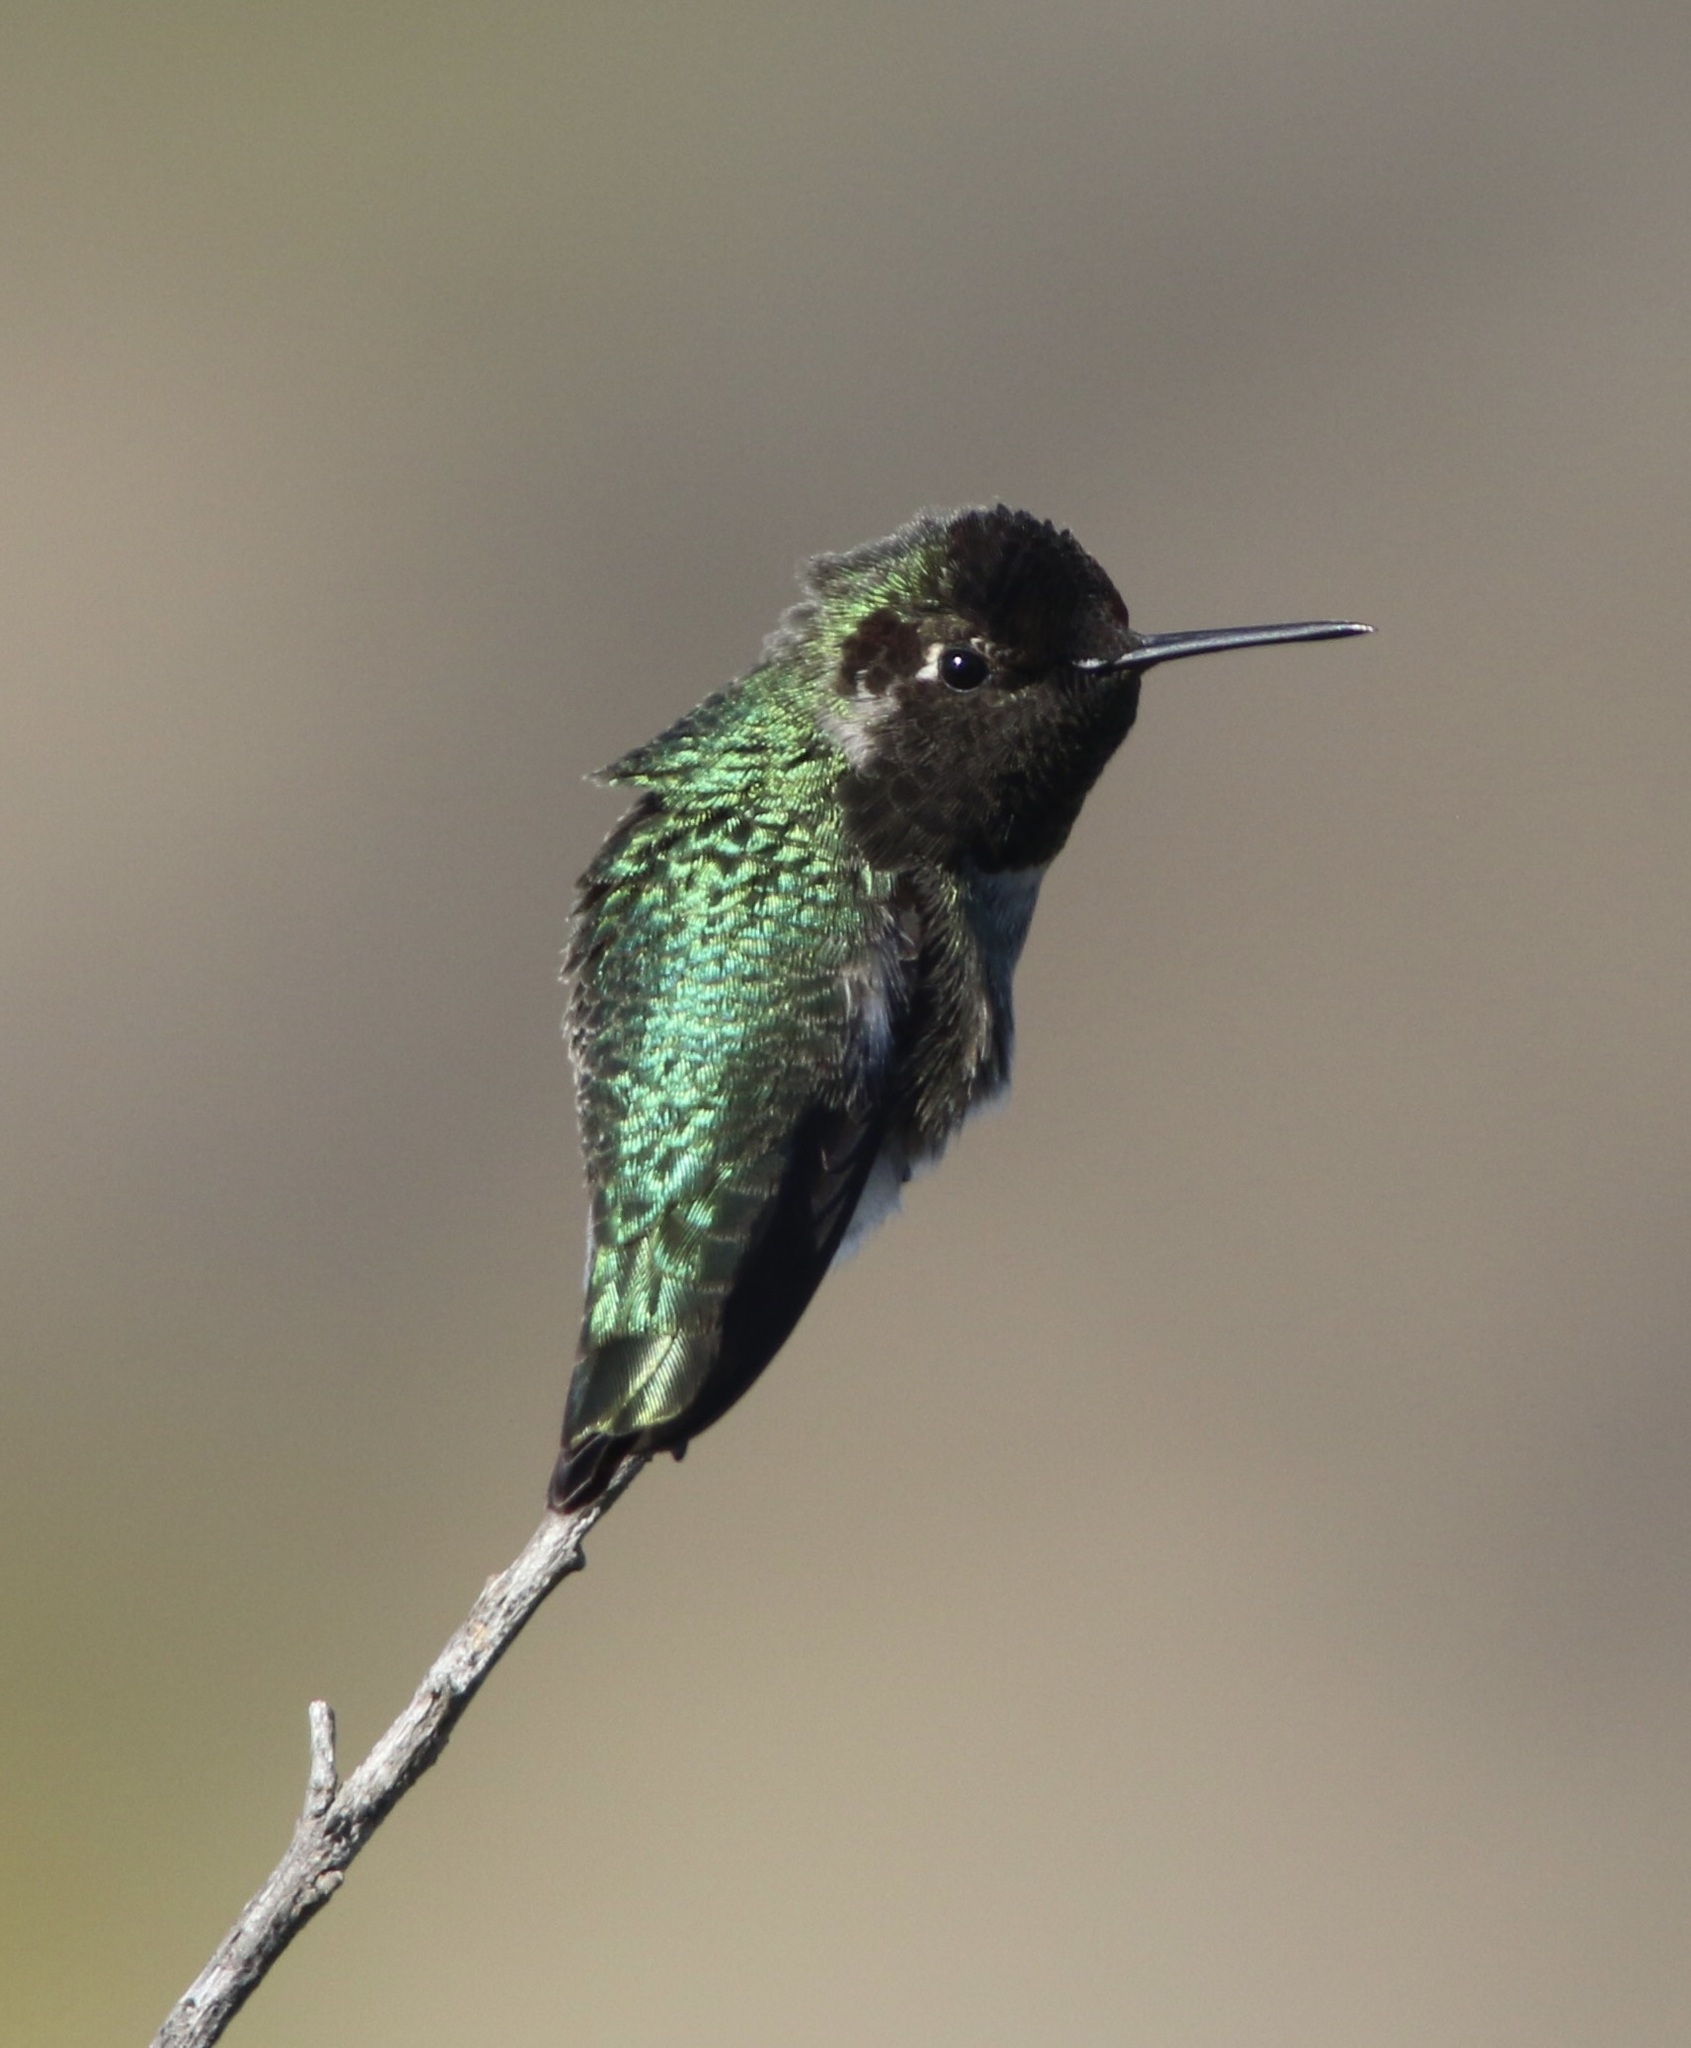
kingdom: Animalia
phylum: Chordata
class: Aves
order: Apodiformes
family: Trochilidae
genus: Calypte
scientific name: Calypte anna
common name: Anna's hummingbird
